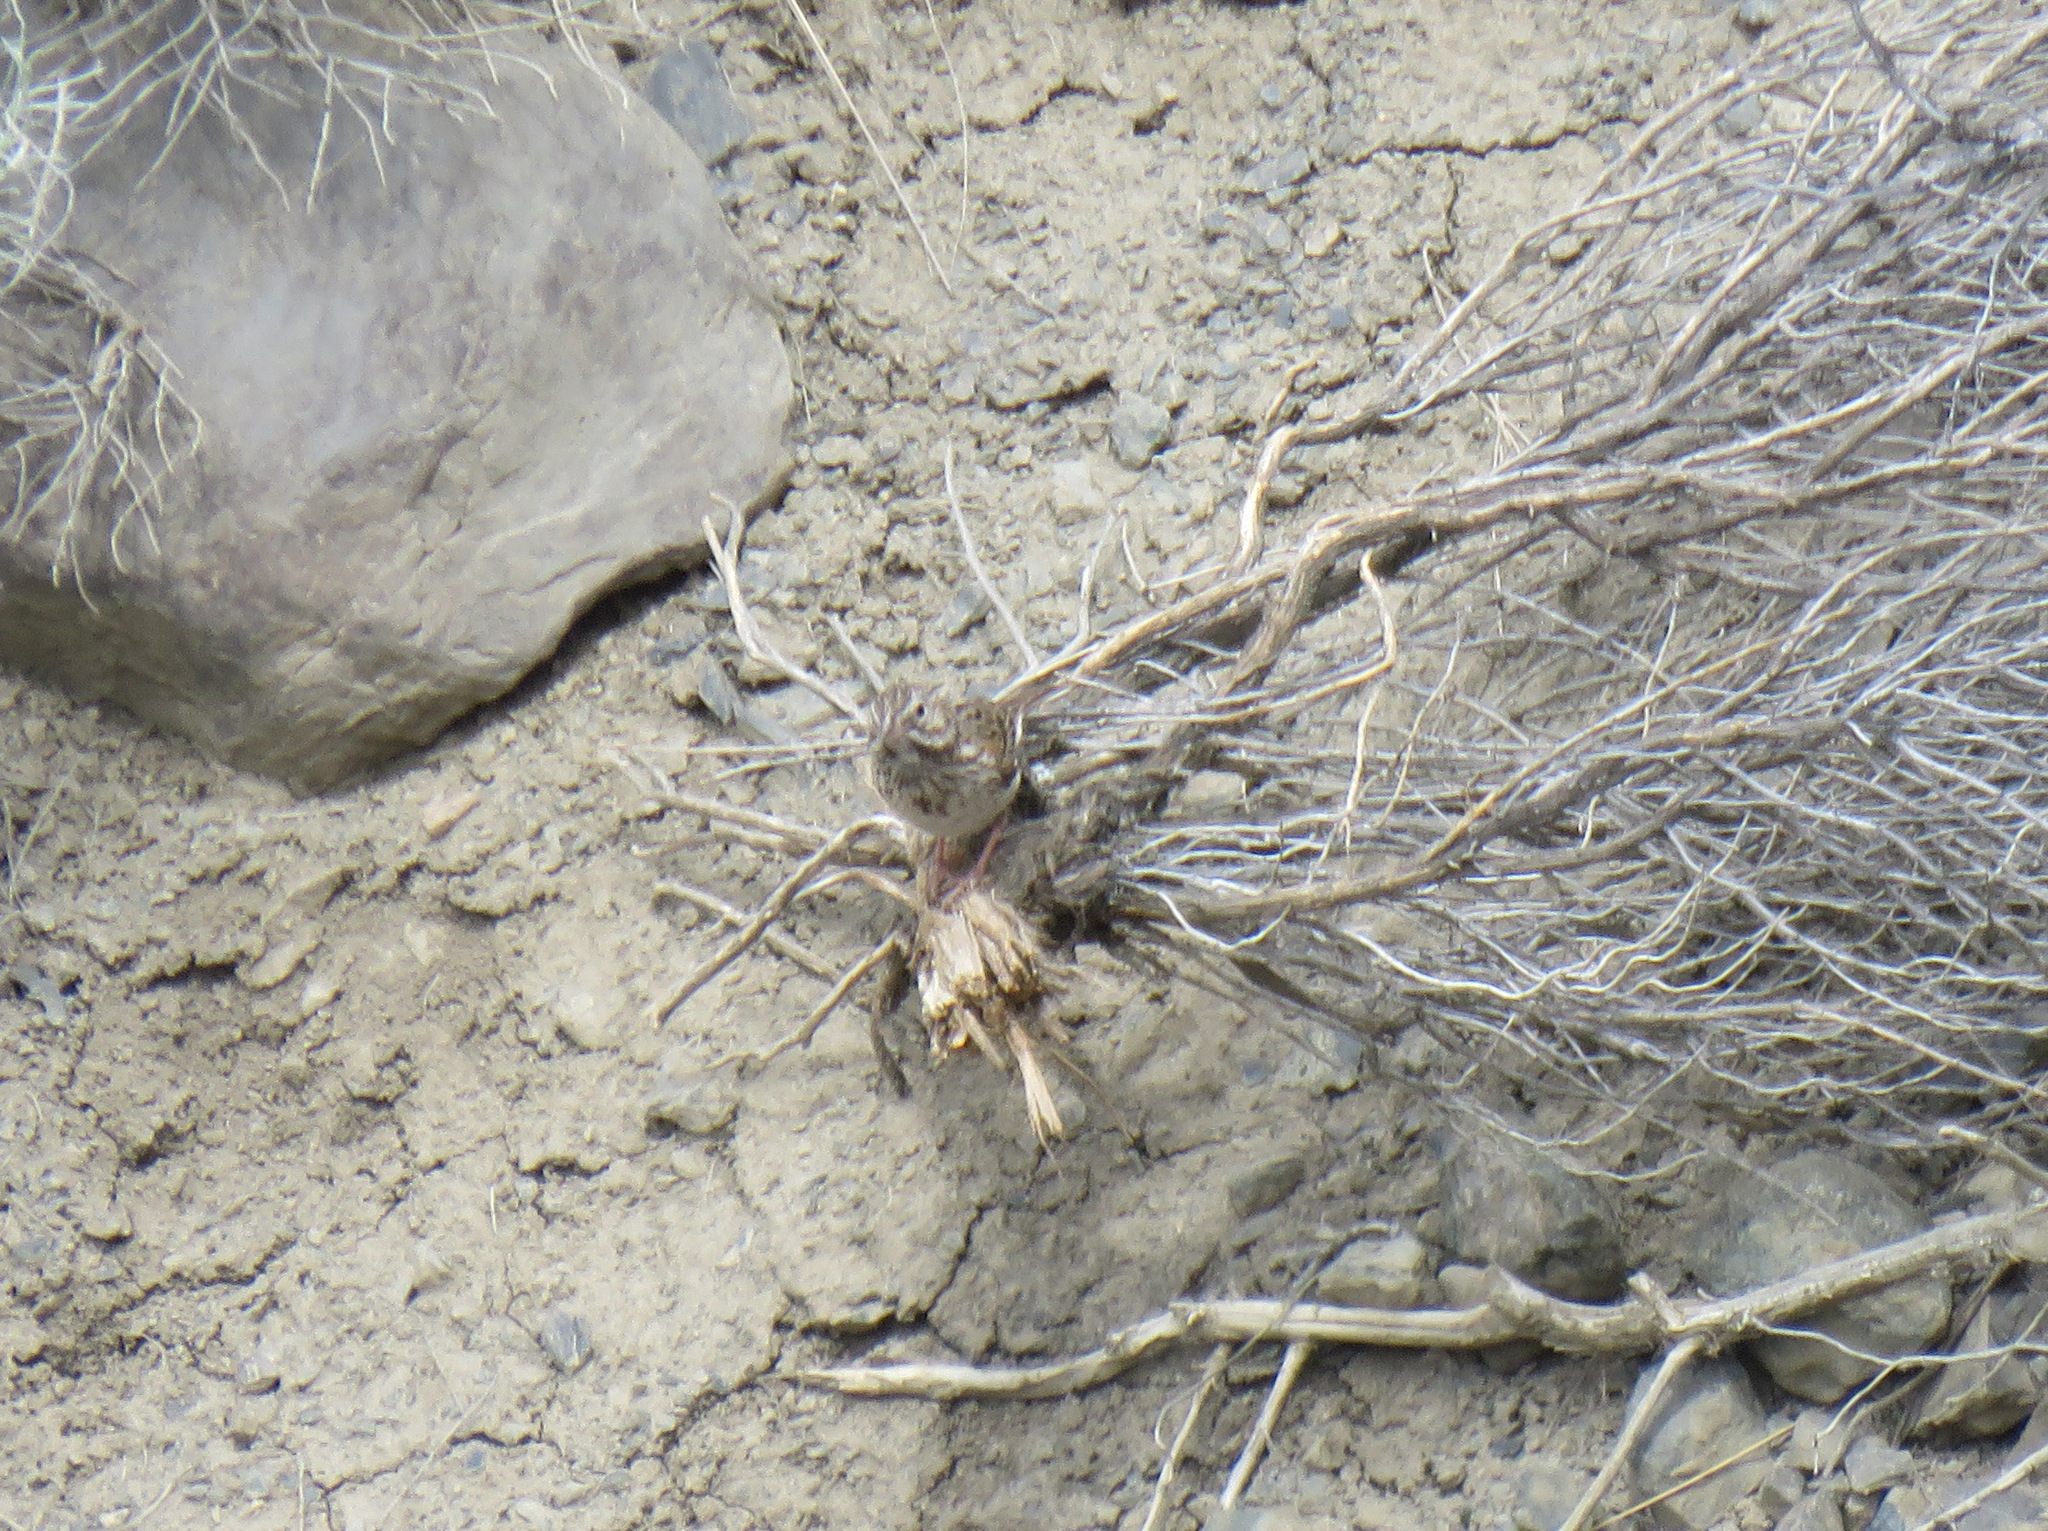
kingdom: Animalia
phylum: Chordata
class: Aves
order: Passeriformes
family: Passerellidae
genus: Pooecetes
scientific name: Pooecetes gramineus
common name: Vesper sparrow
